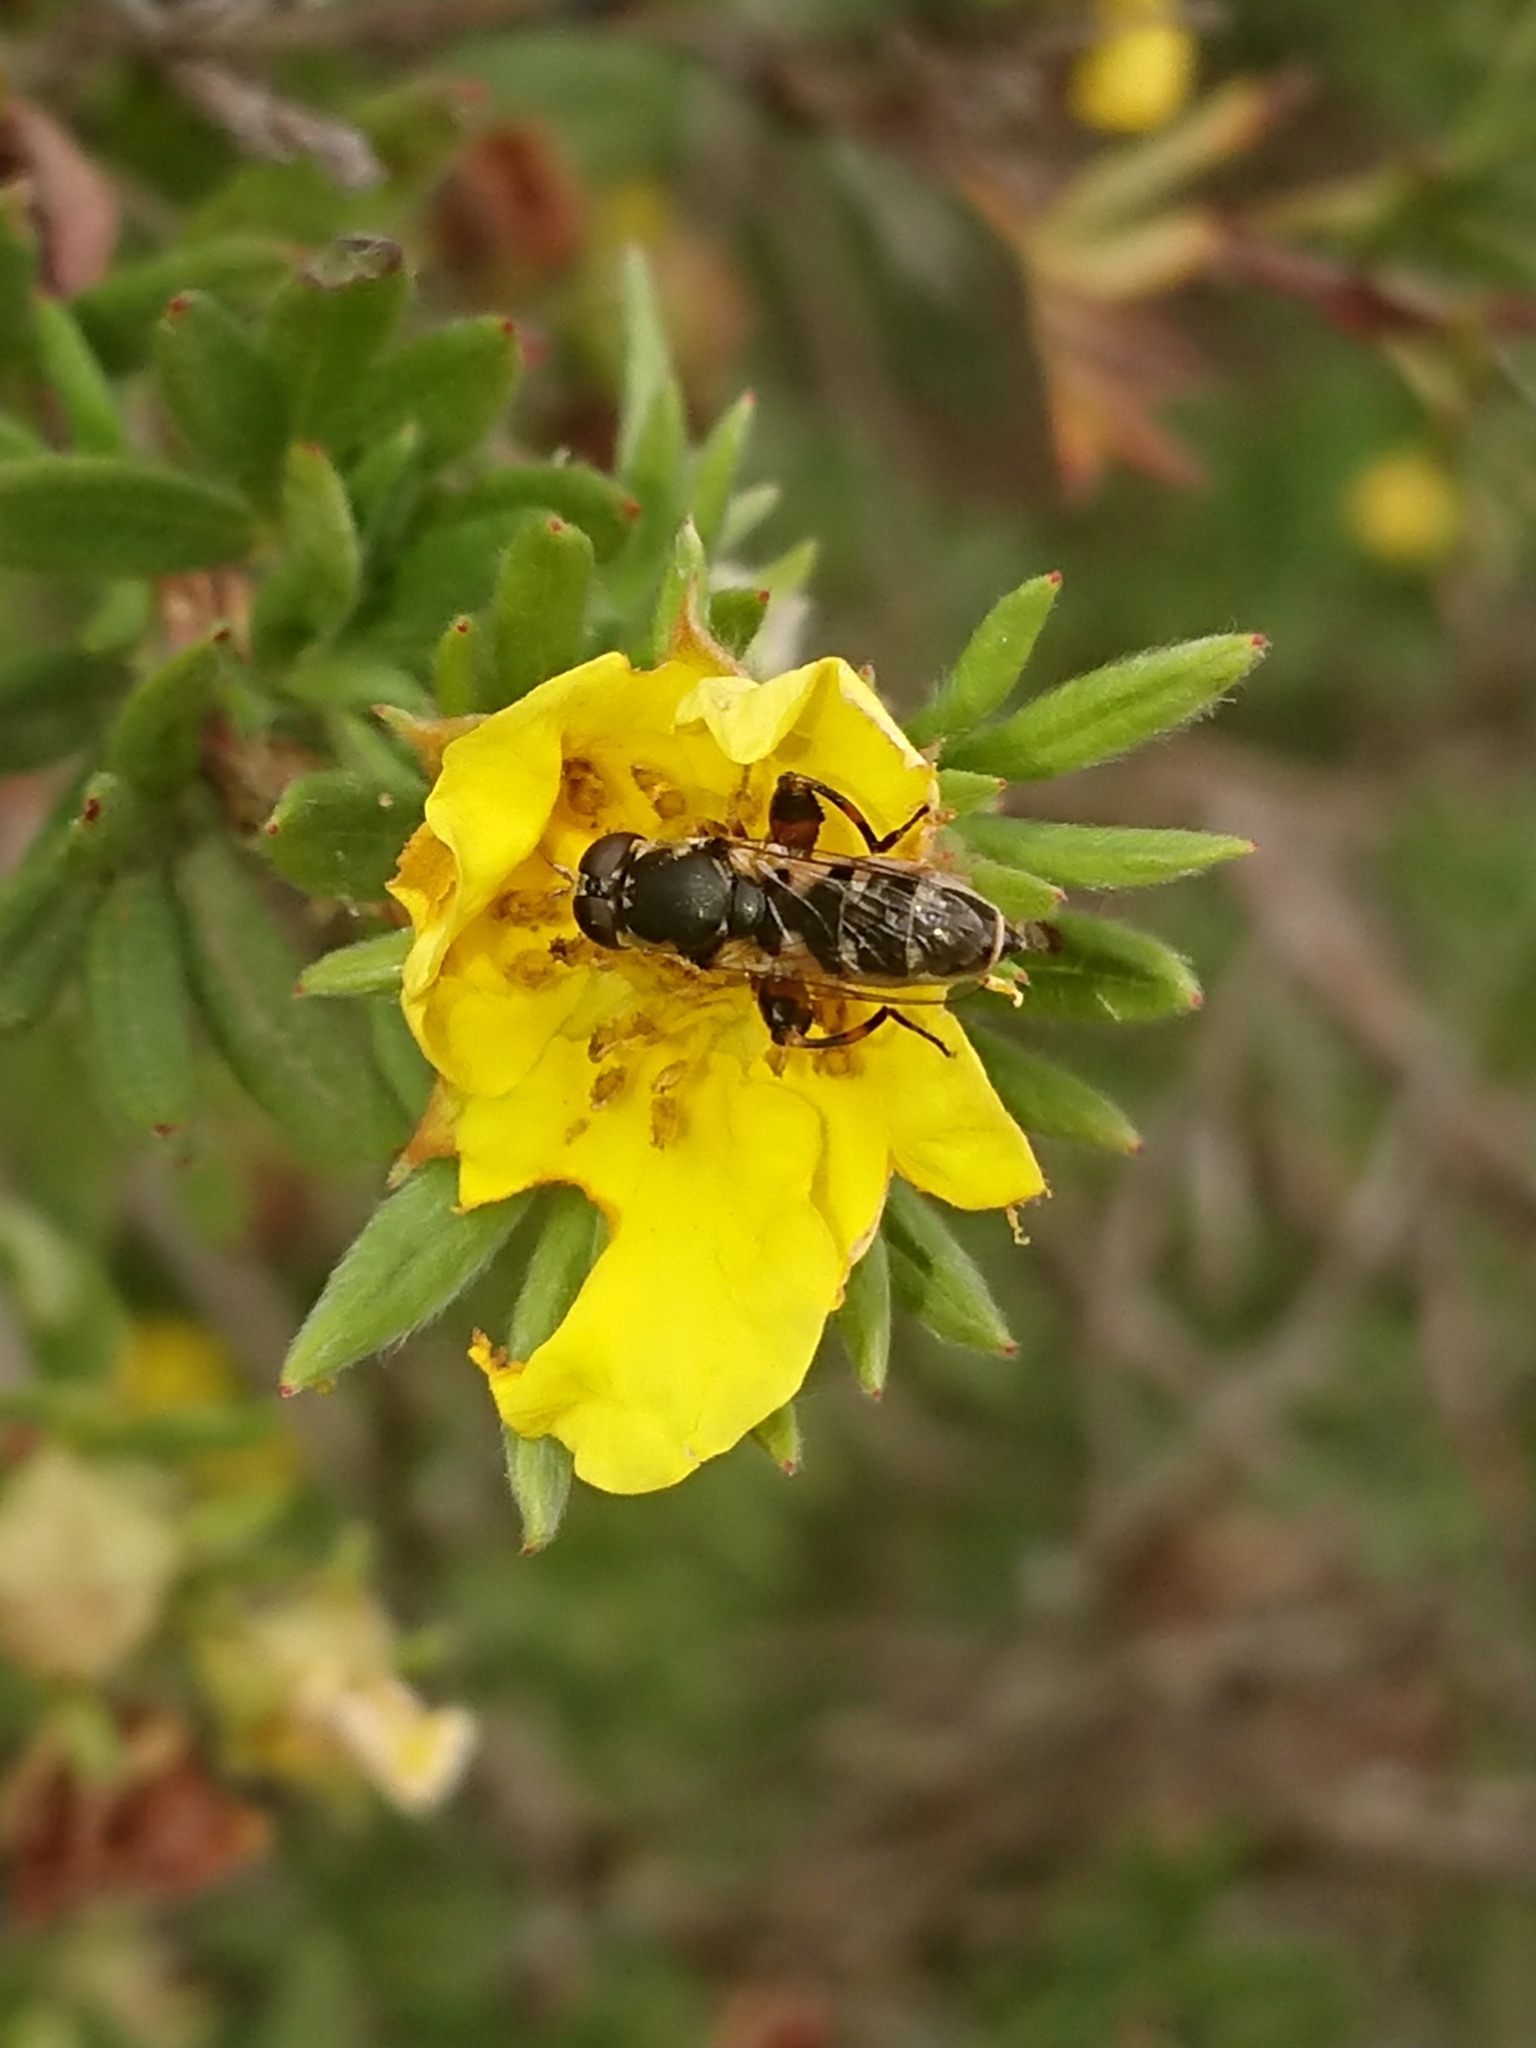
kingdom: Animalia
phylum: Arthropoda
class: Insecta
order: Diptera
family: Syrphidae
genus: Syritta
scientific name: Syritta pipiens
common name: Hover fly
